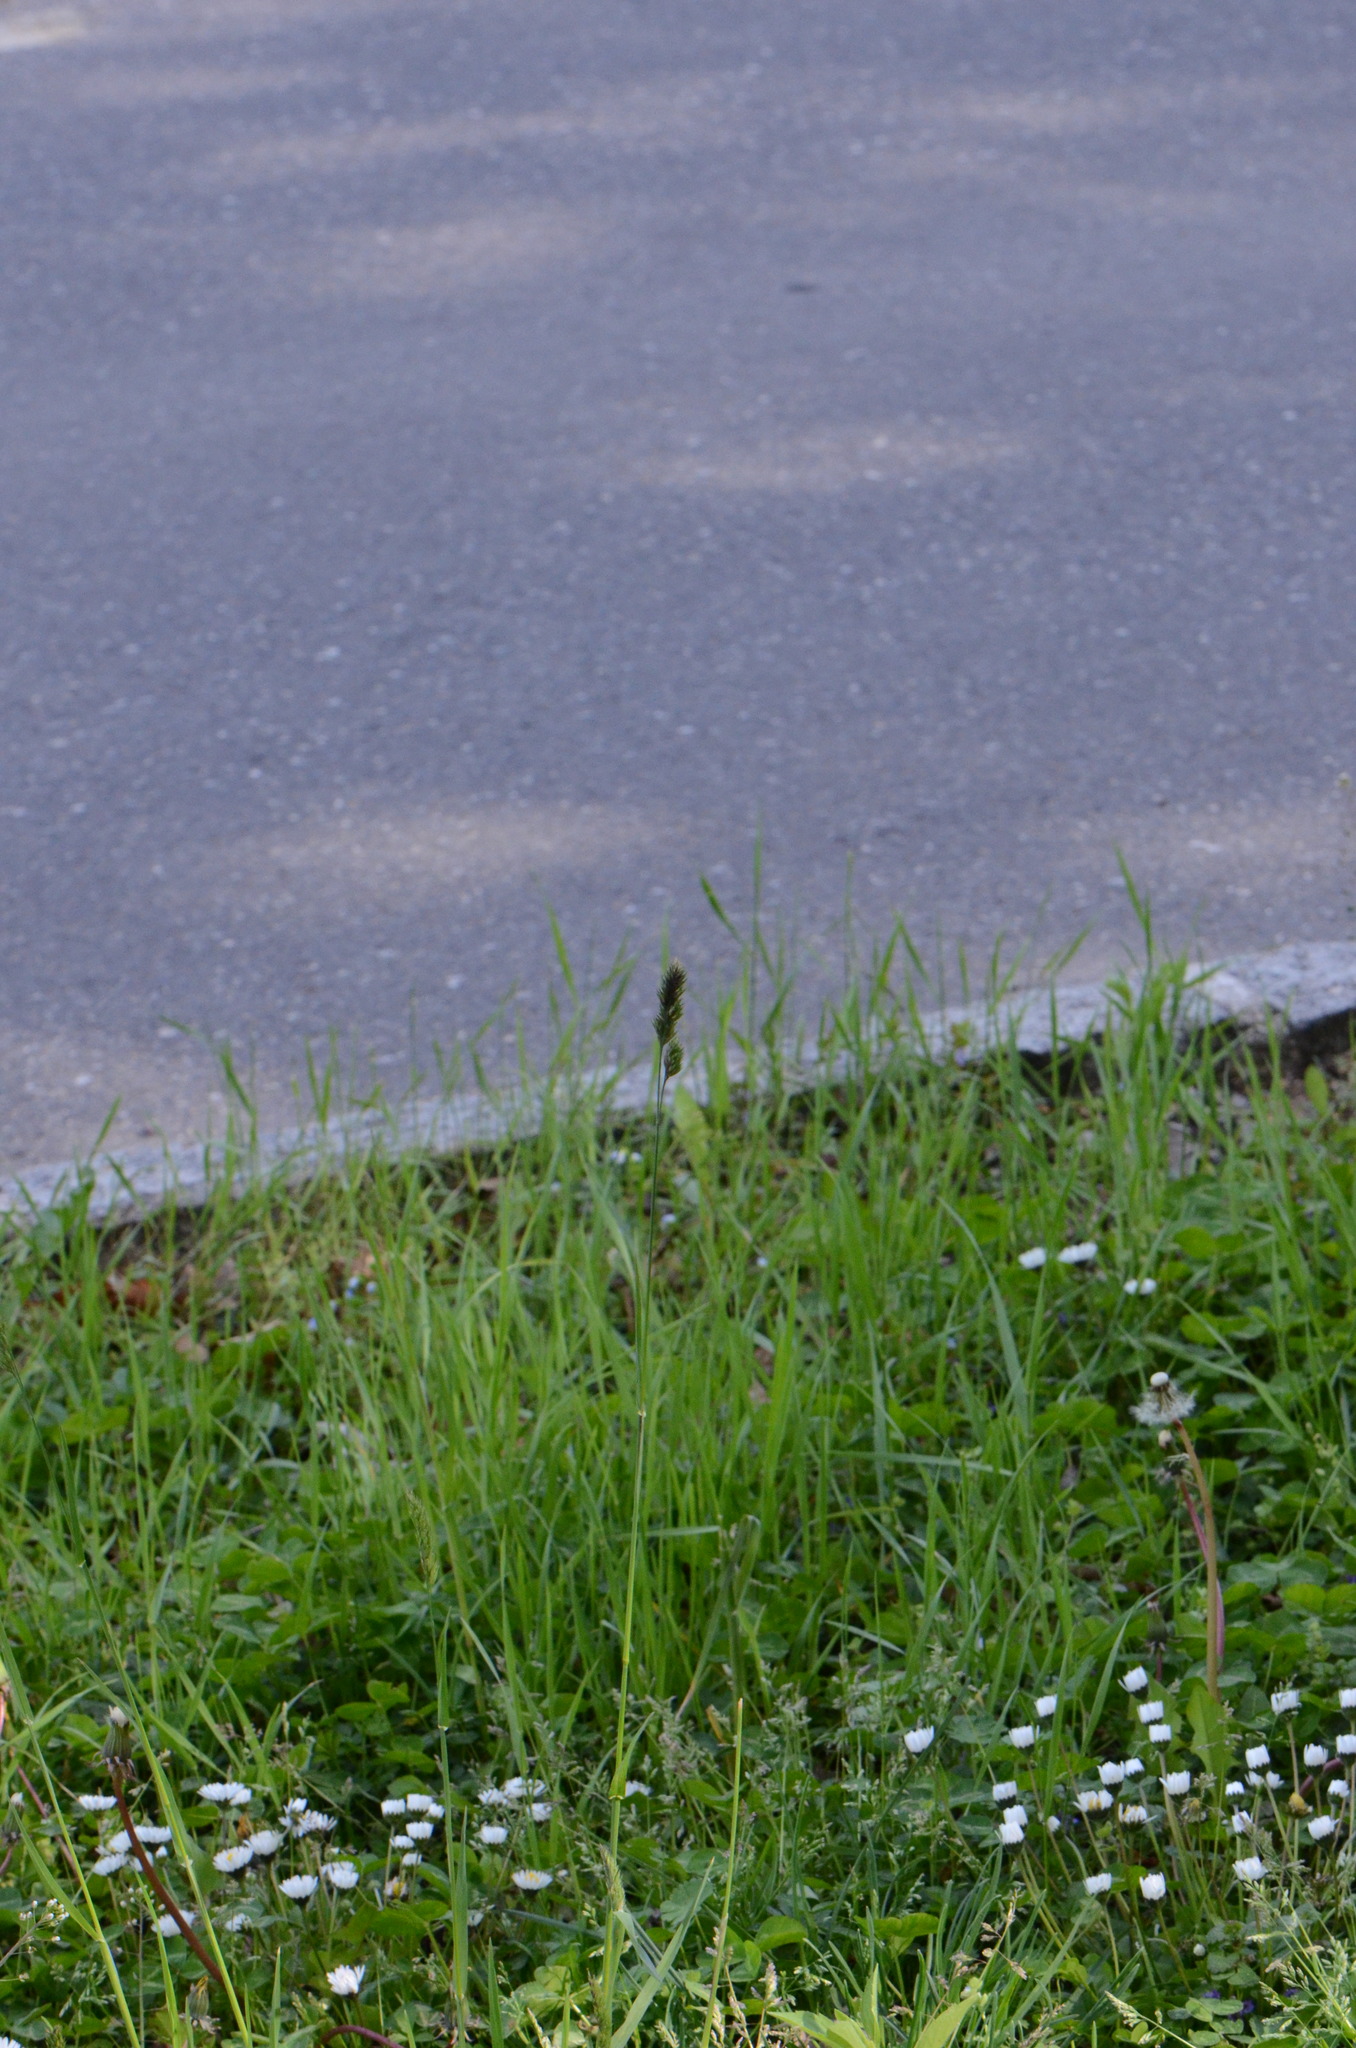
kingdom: Plantae
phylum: Tracheophyta
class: Liliopsida
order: Poales
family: Poaceae
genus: Dactylis
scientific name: Dactylis glomerata
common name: Orchardgrass
